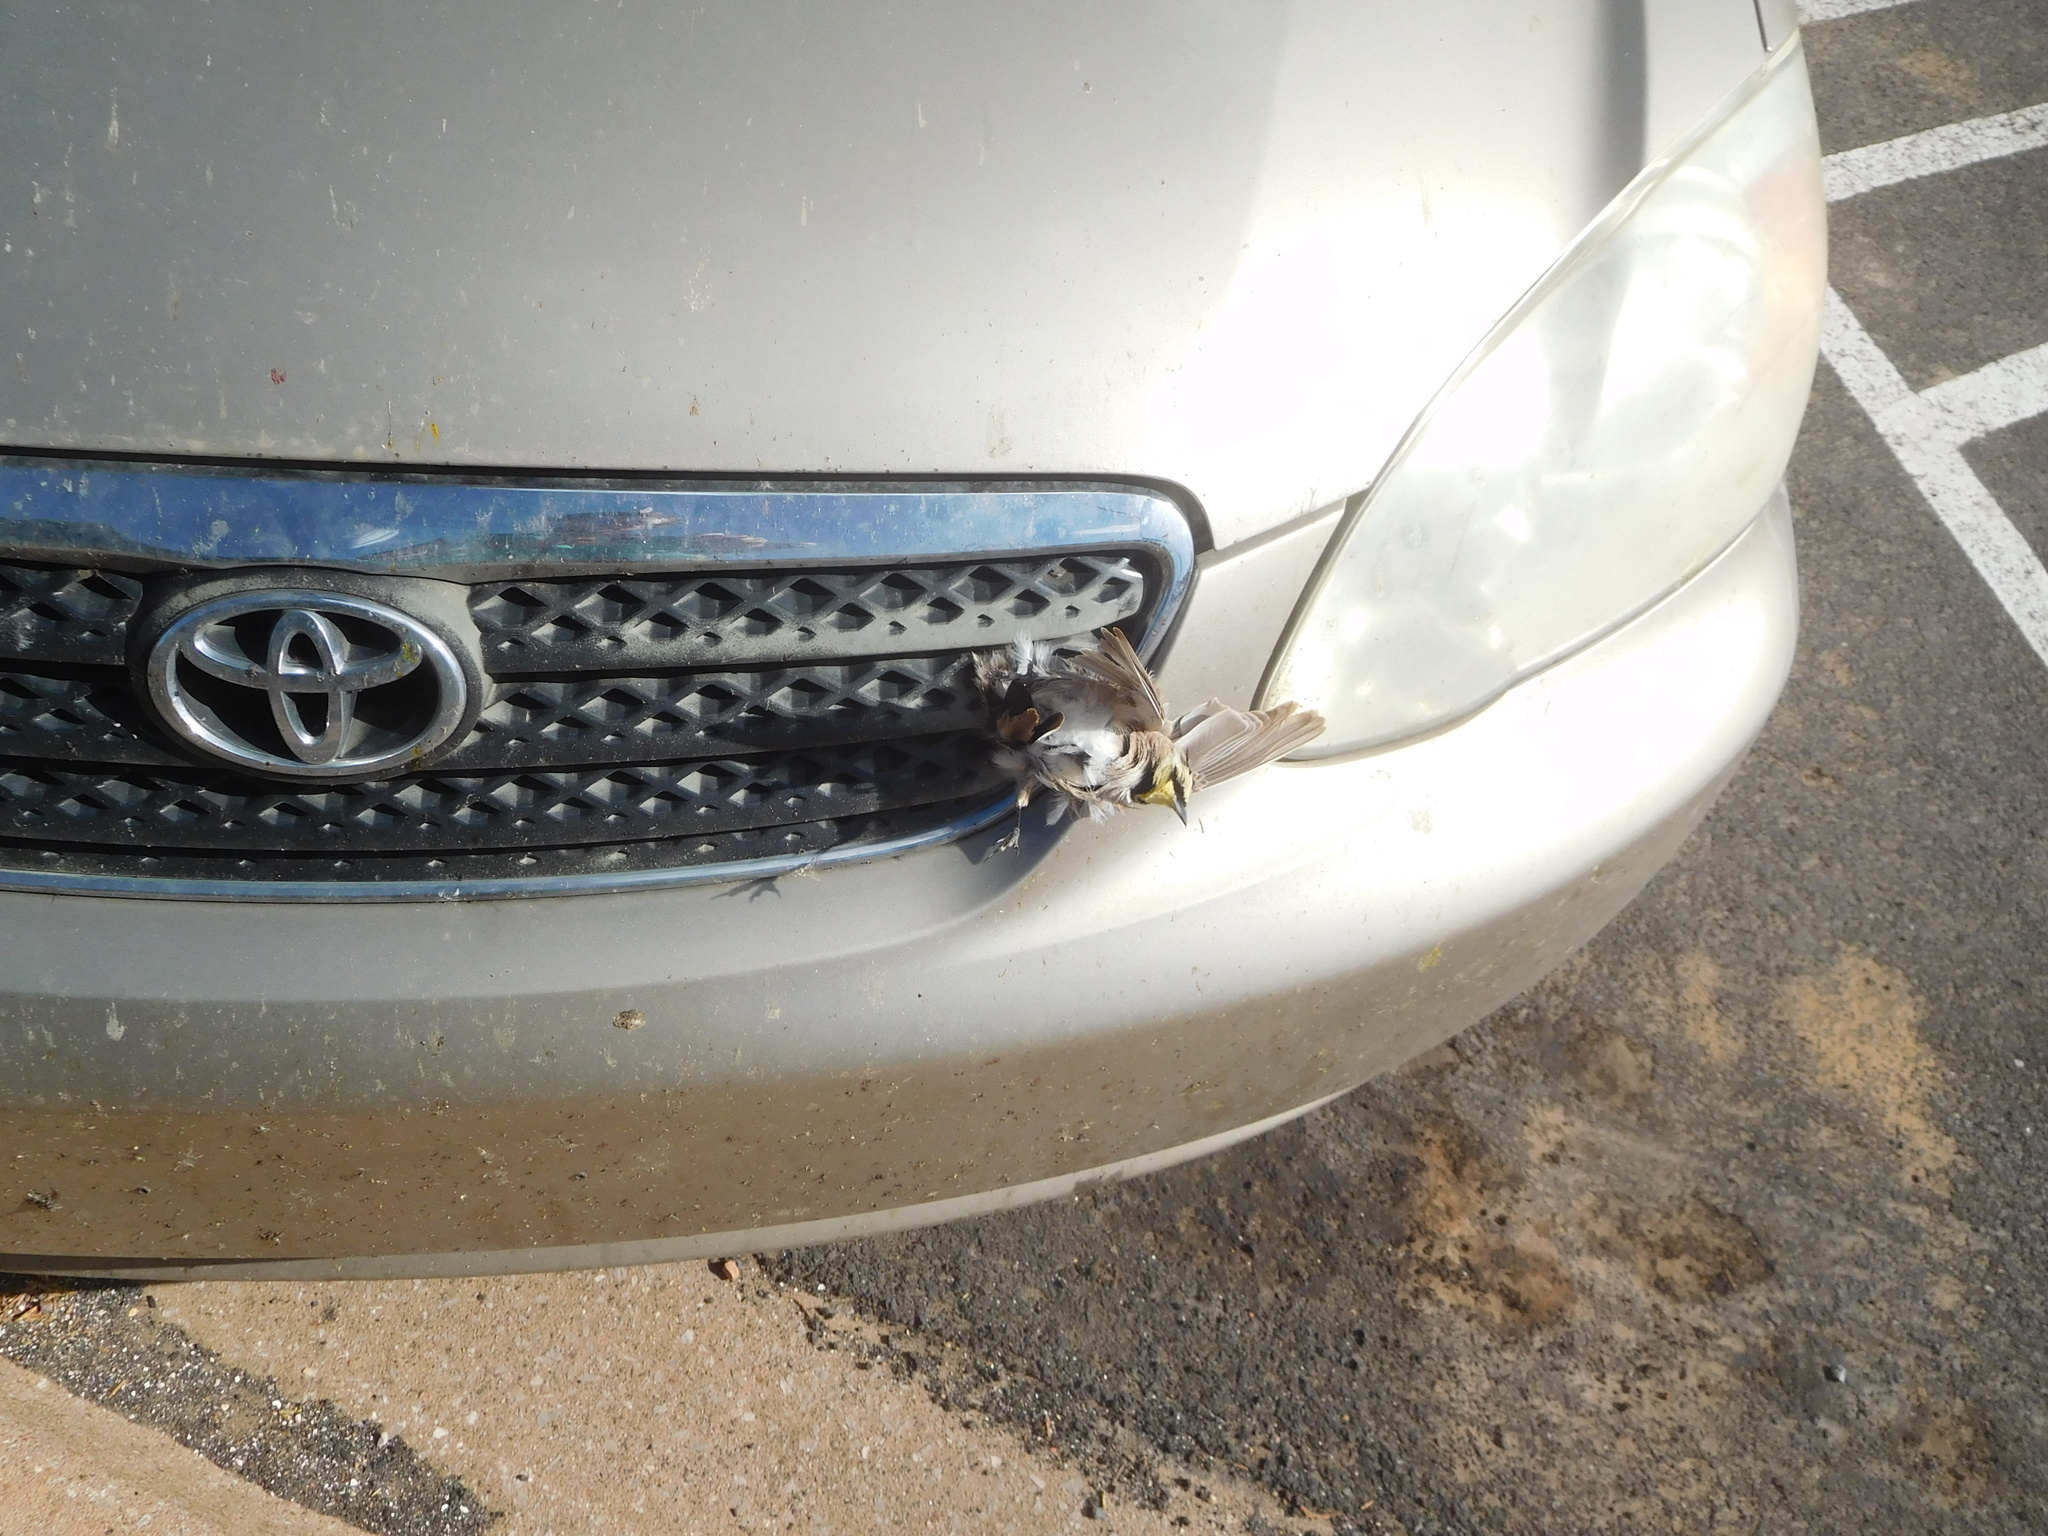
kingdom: Animalia
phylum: Chordata
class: Aves
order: Passeriformes
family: Alaudidae
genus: Eremophila
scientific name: Eremophila alpestris
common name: Horned lark
